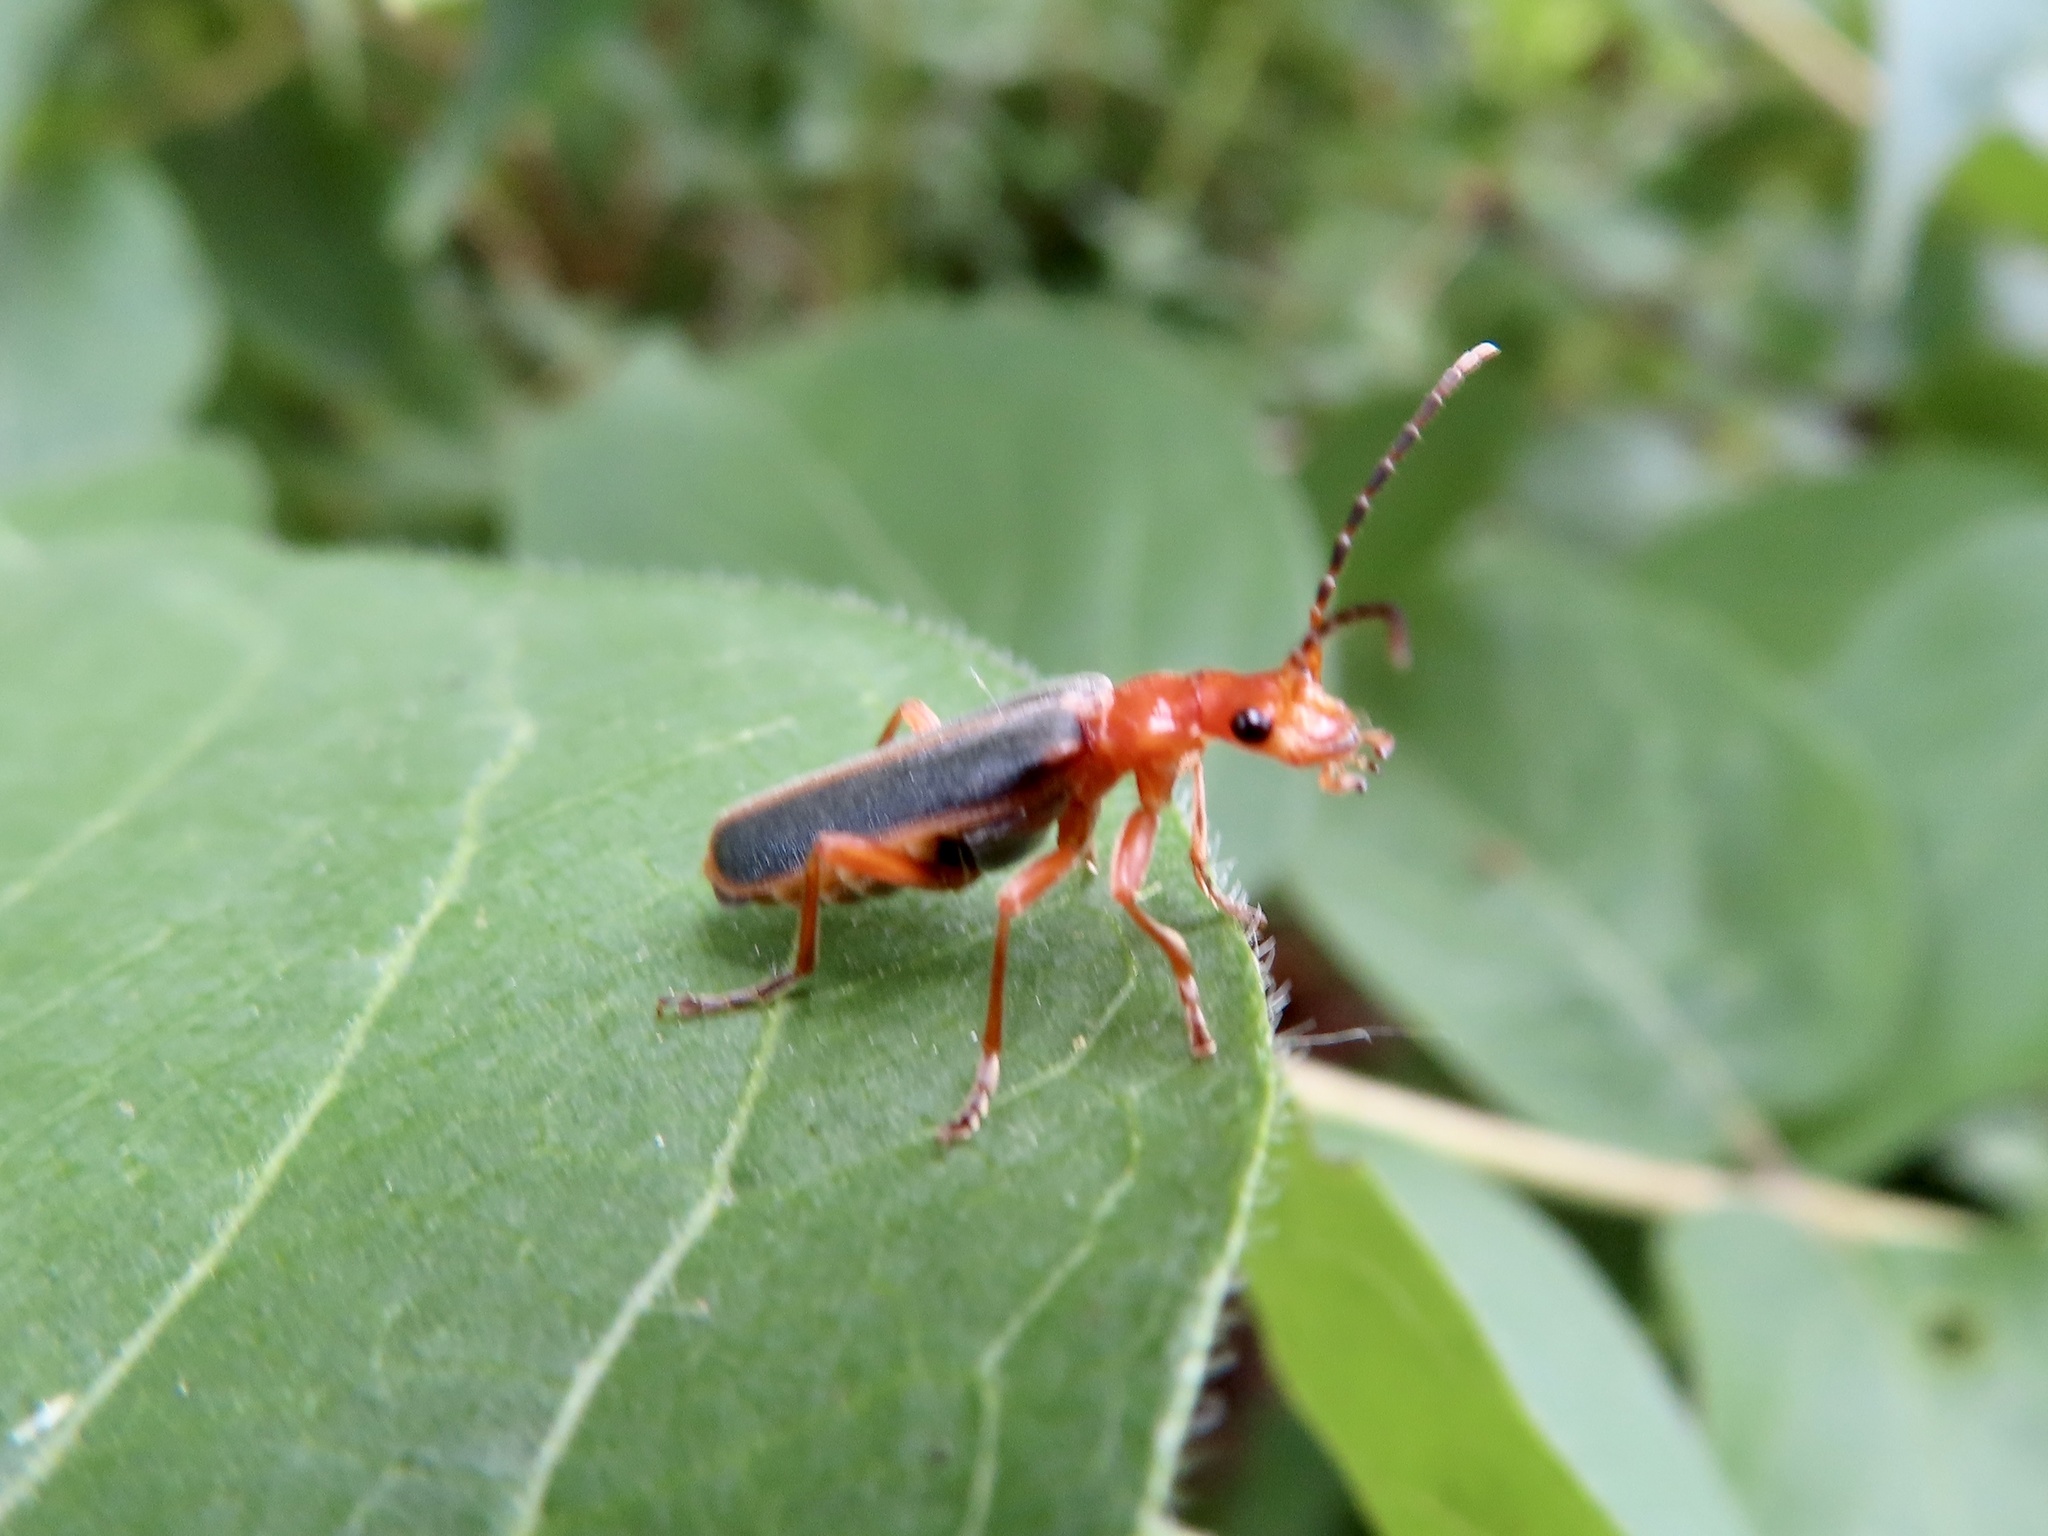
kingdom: Animalia
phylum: Arthropoda
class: Insecta
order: Coleoptera
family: Cantharidae
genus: Podabrus
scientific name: Podabrus tomentosus
